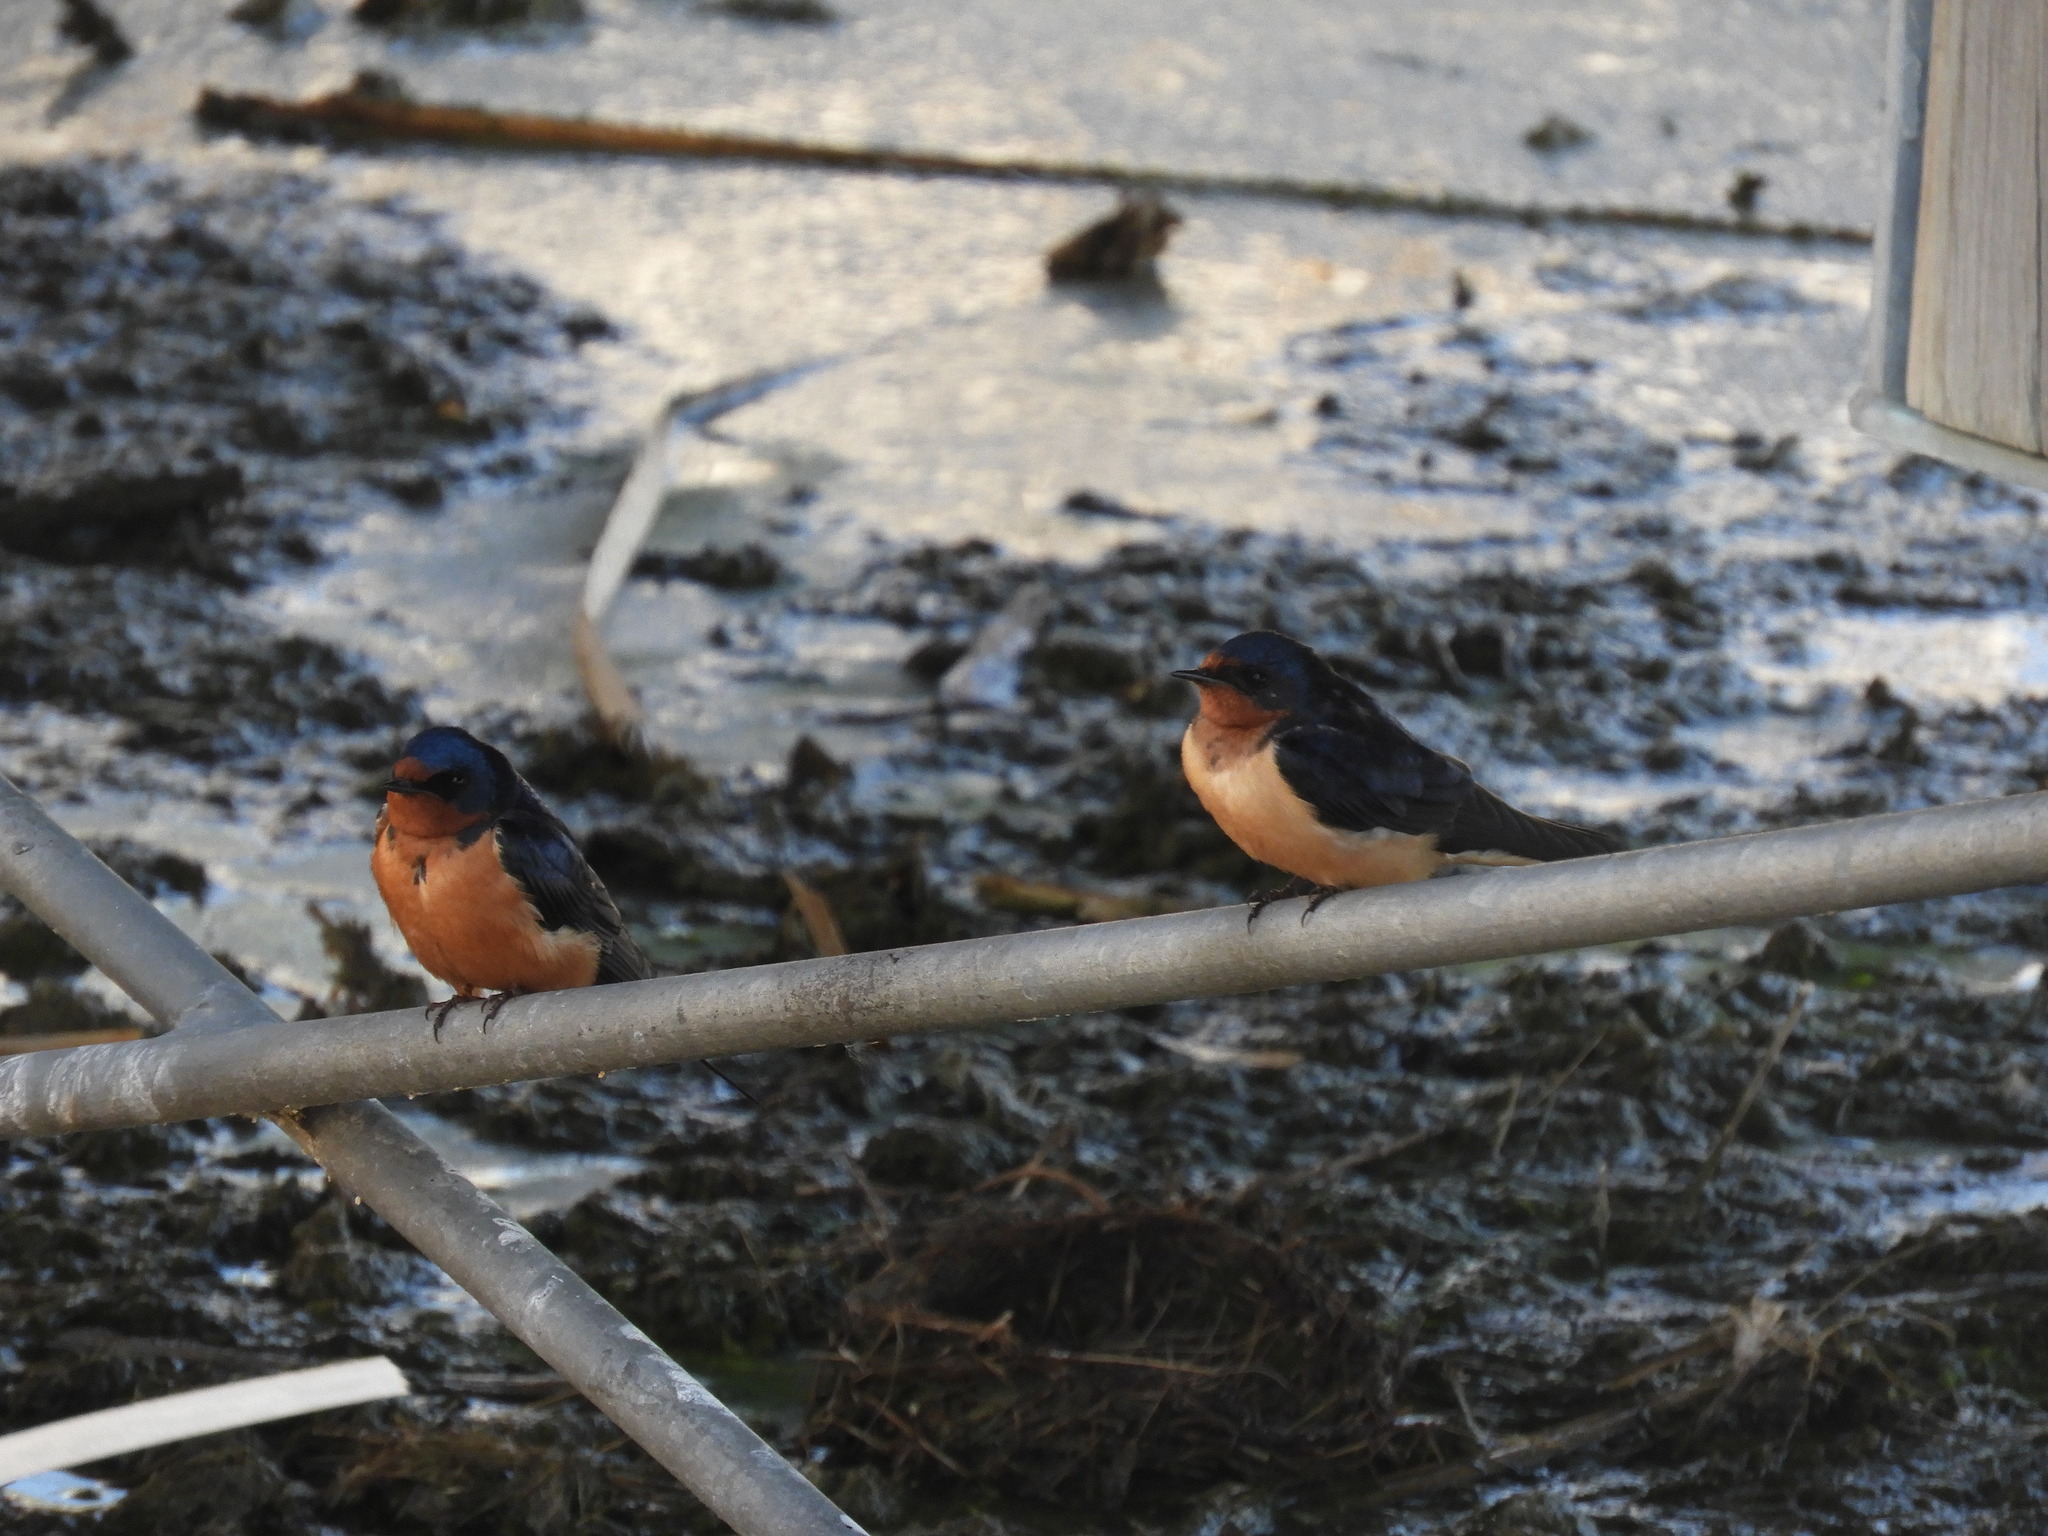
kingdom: Animalia
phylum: Chordata
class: Aves
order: Passeriformes
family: Hirundinidae
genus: Hirundo
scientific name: Hirundo rustica
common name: Barn swallow
